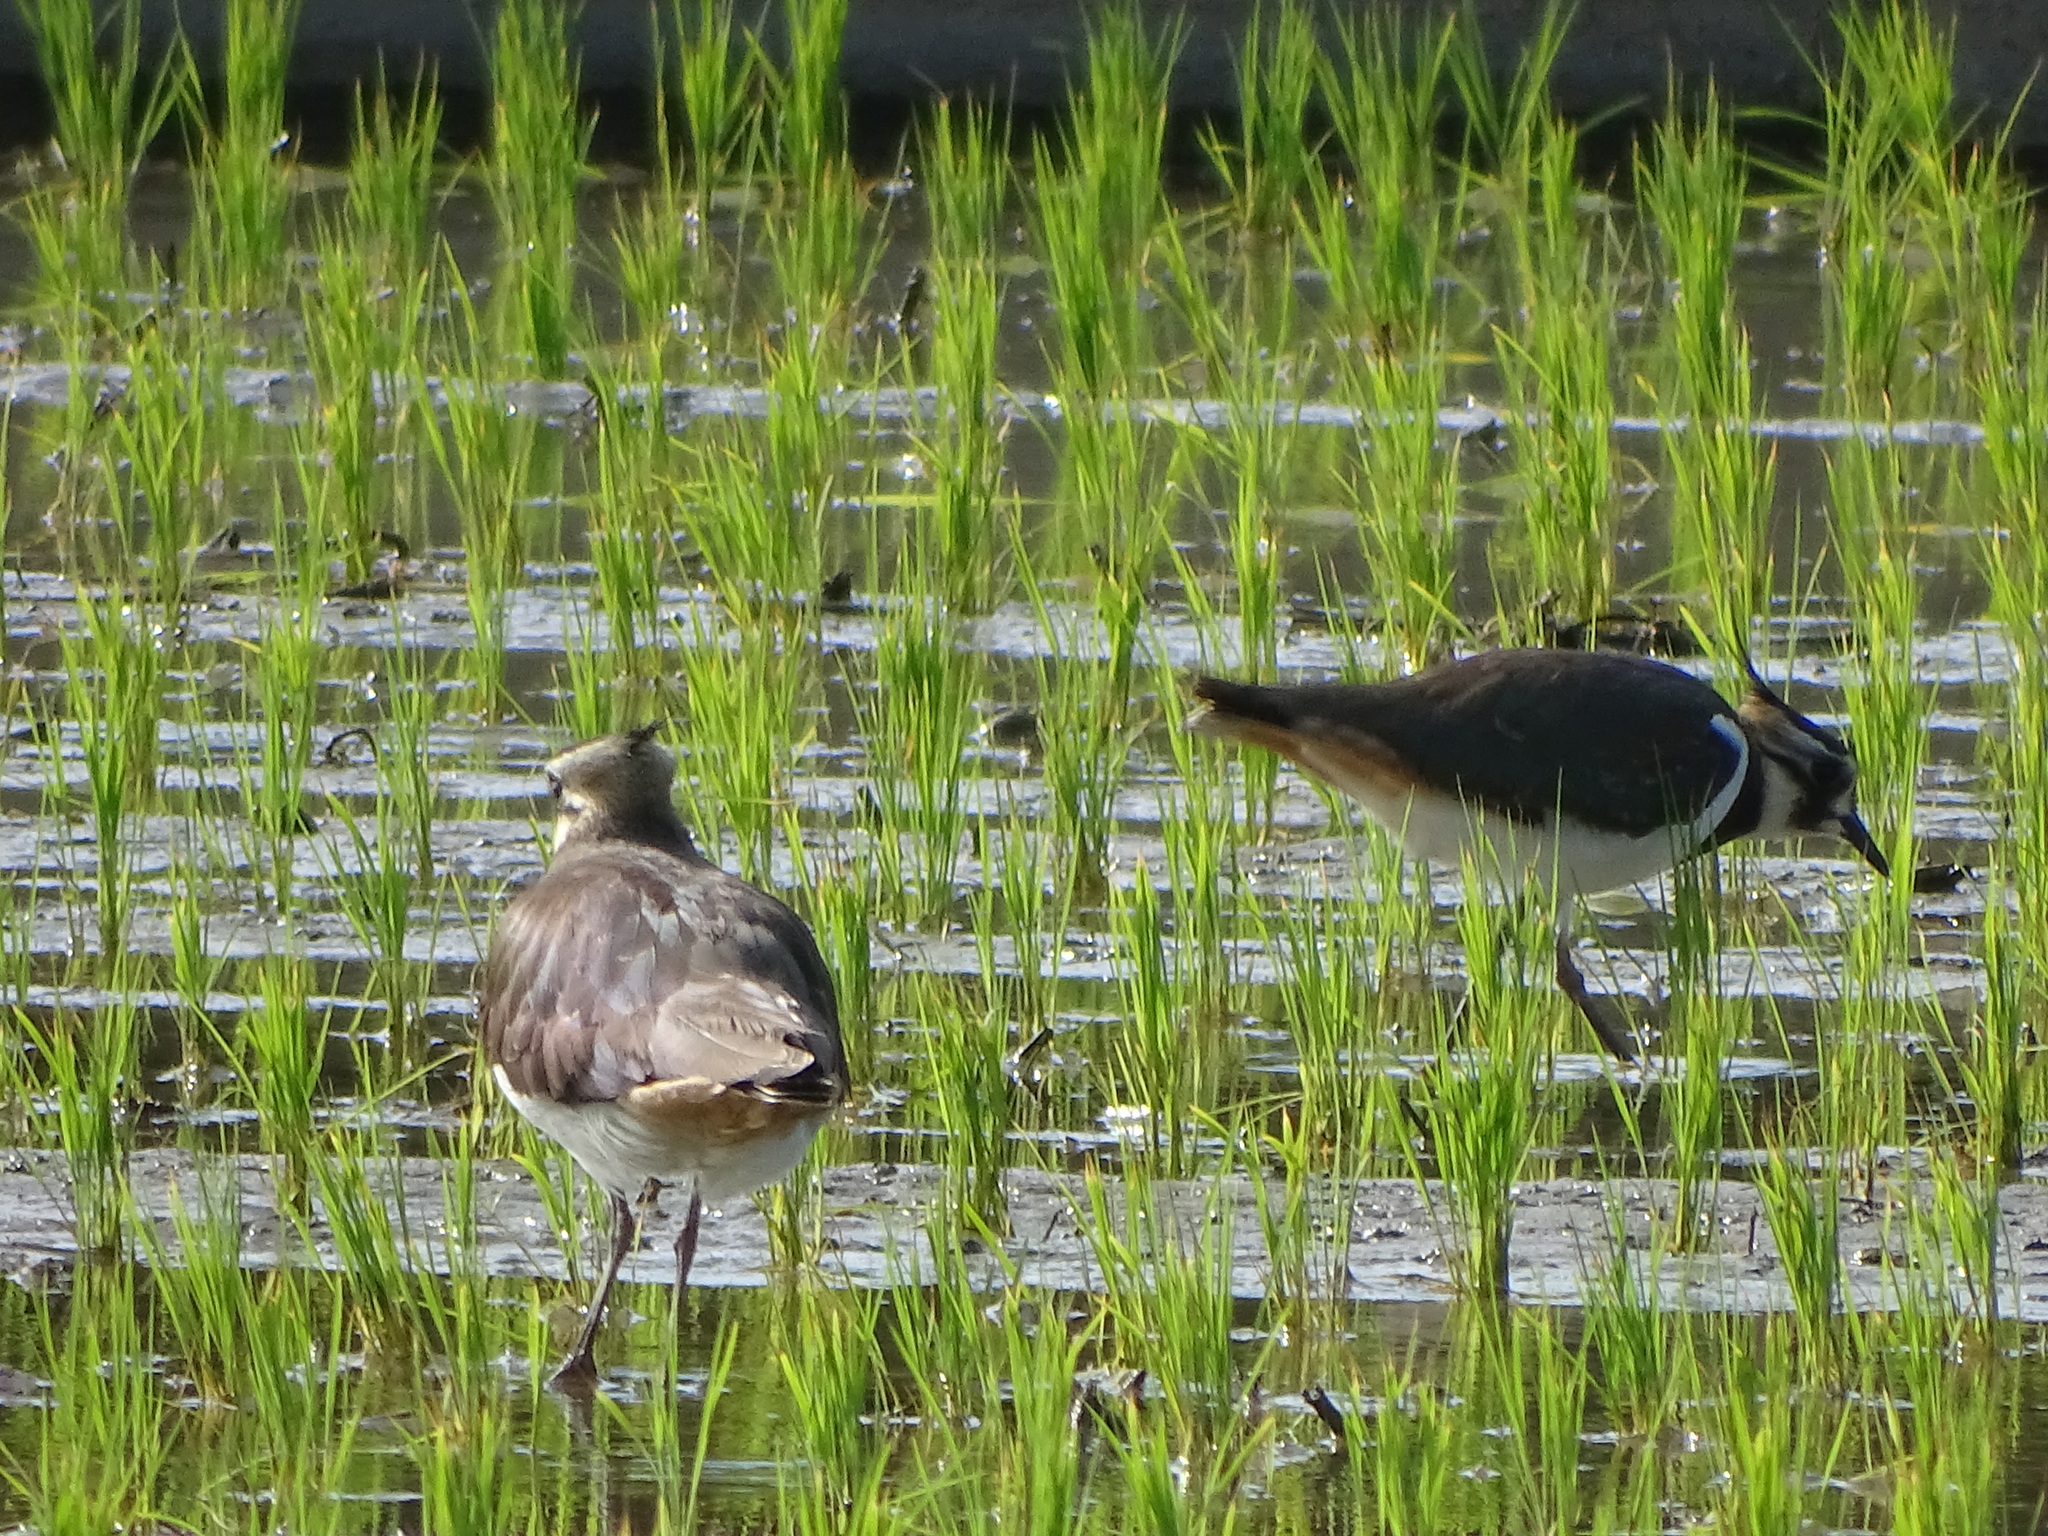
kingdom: Animalia
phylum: Chordata
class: Aves
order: Charadriiformes
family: Charadriidae
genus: Vanellus
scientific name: Vanellus vanellus
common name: Northern lapwing
